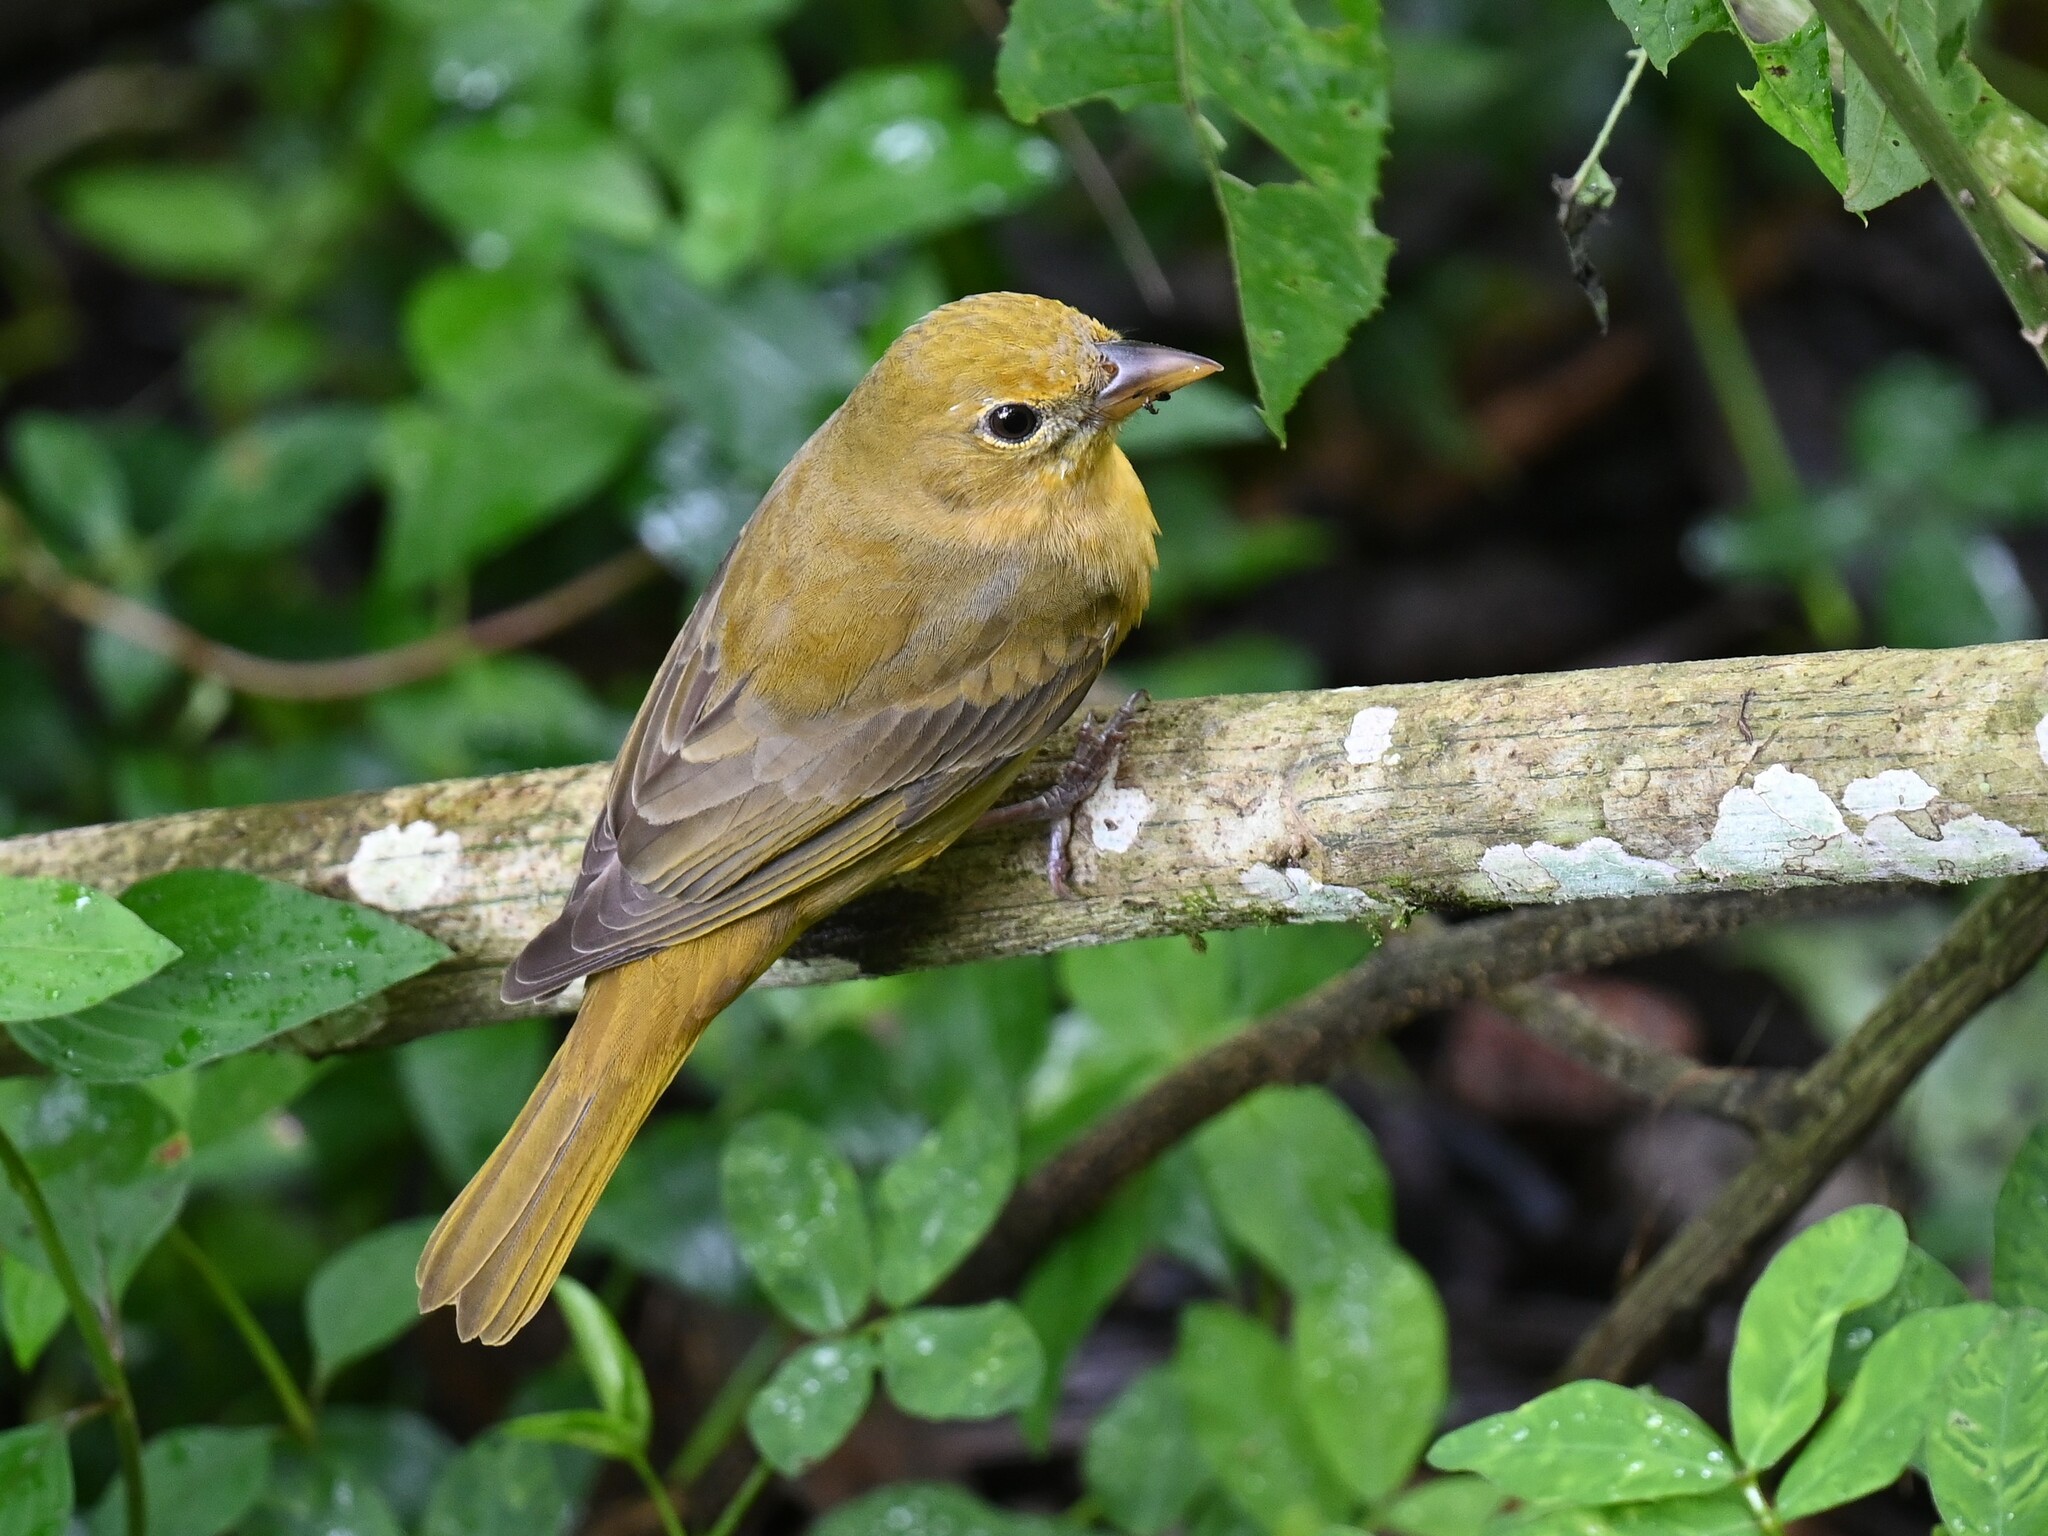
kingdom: Animalia
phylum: Chordata
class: Aves
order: Passeriformes
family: Cardinalidae
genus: Piranga
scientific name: Piranga rubra
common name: Summer tanager
